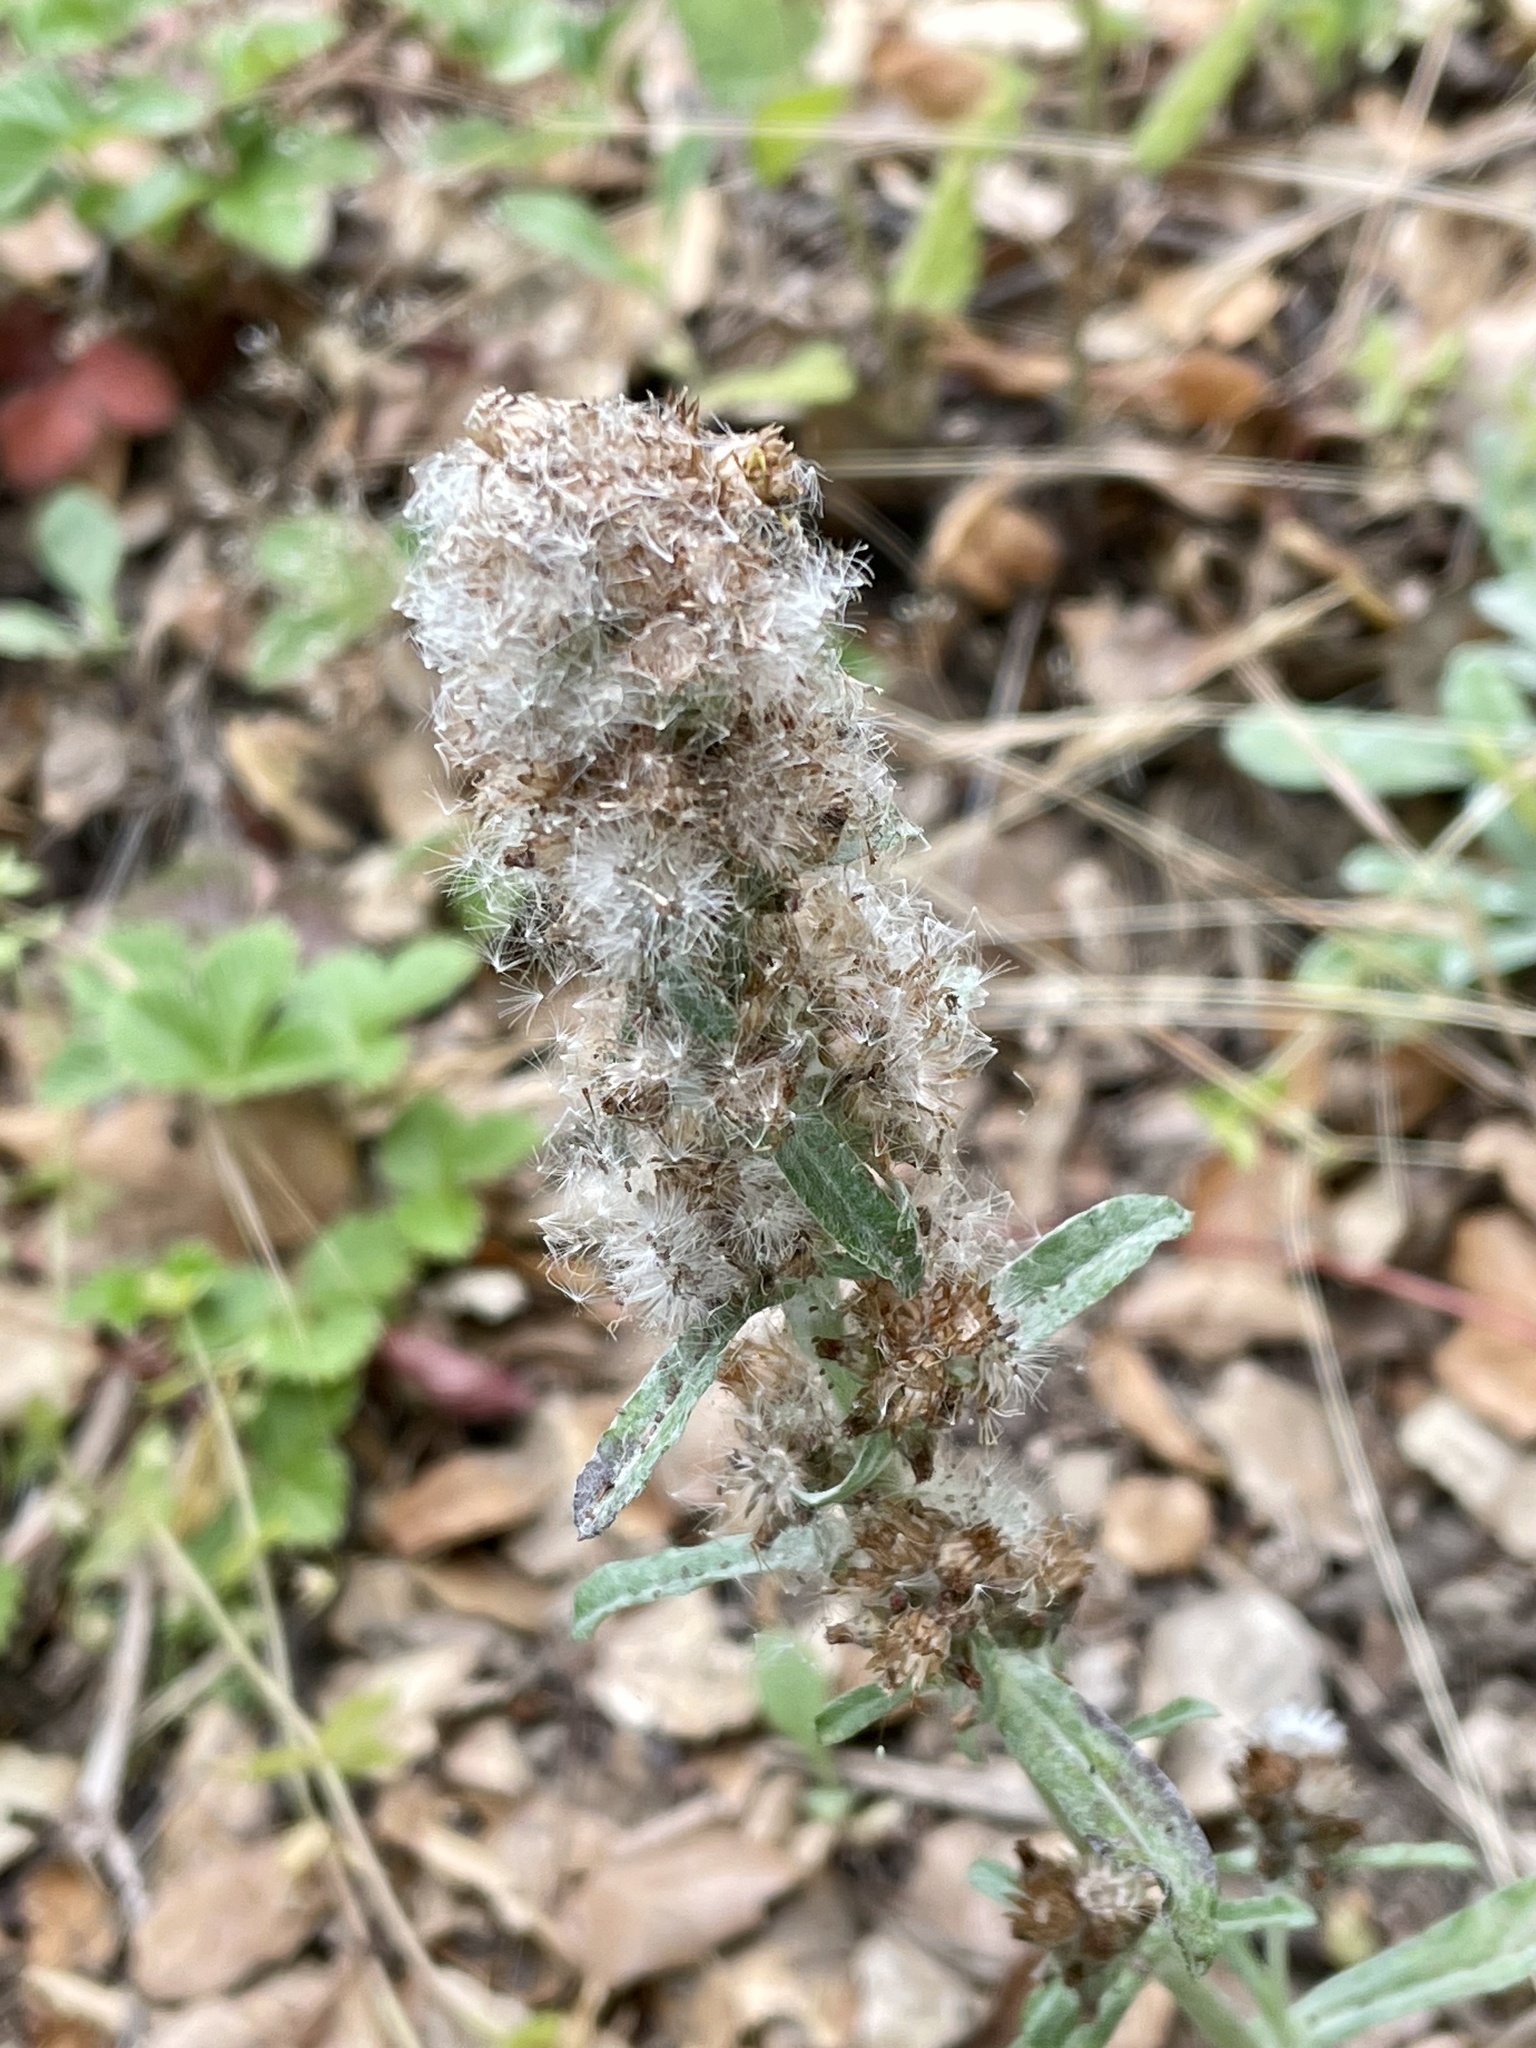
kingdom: Plantae
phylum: Tracheophyta
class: Magnoliopsida
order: Asterales
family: Asteraceae
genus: Gamochaeta
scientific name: Gamochaeta ustulata
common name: Pacific cudweed
